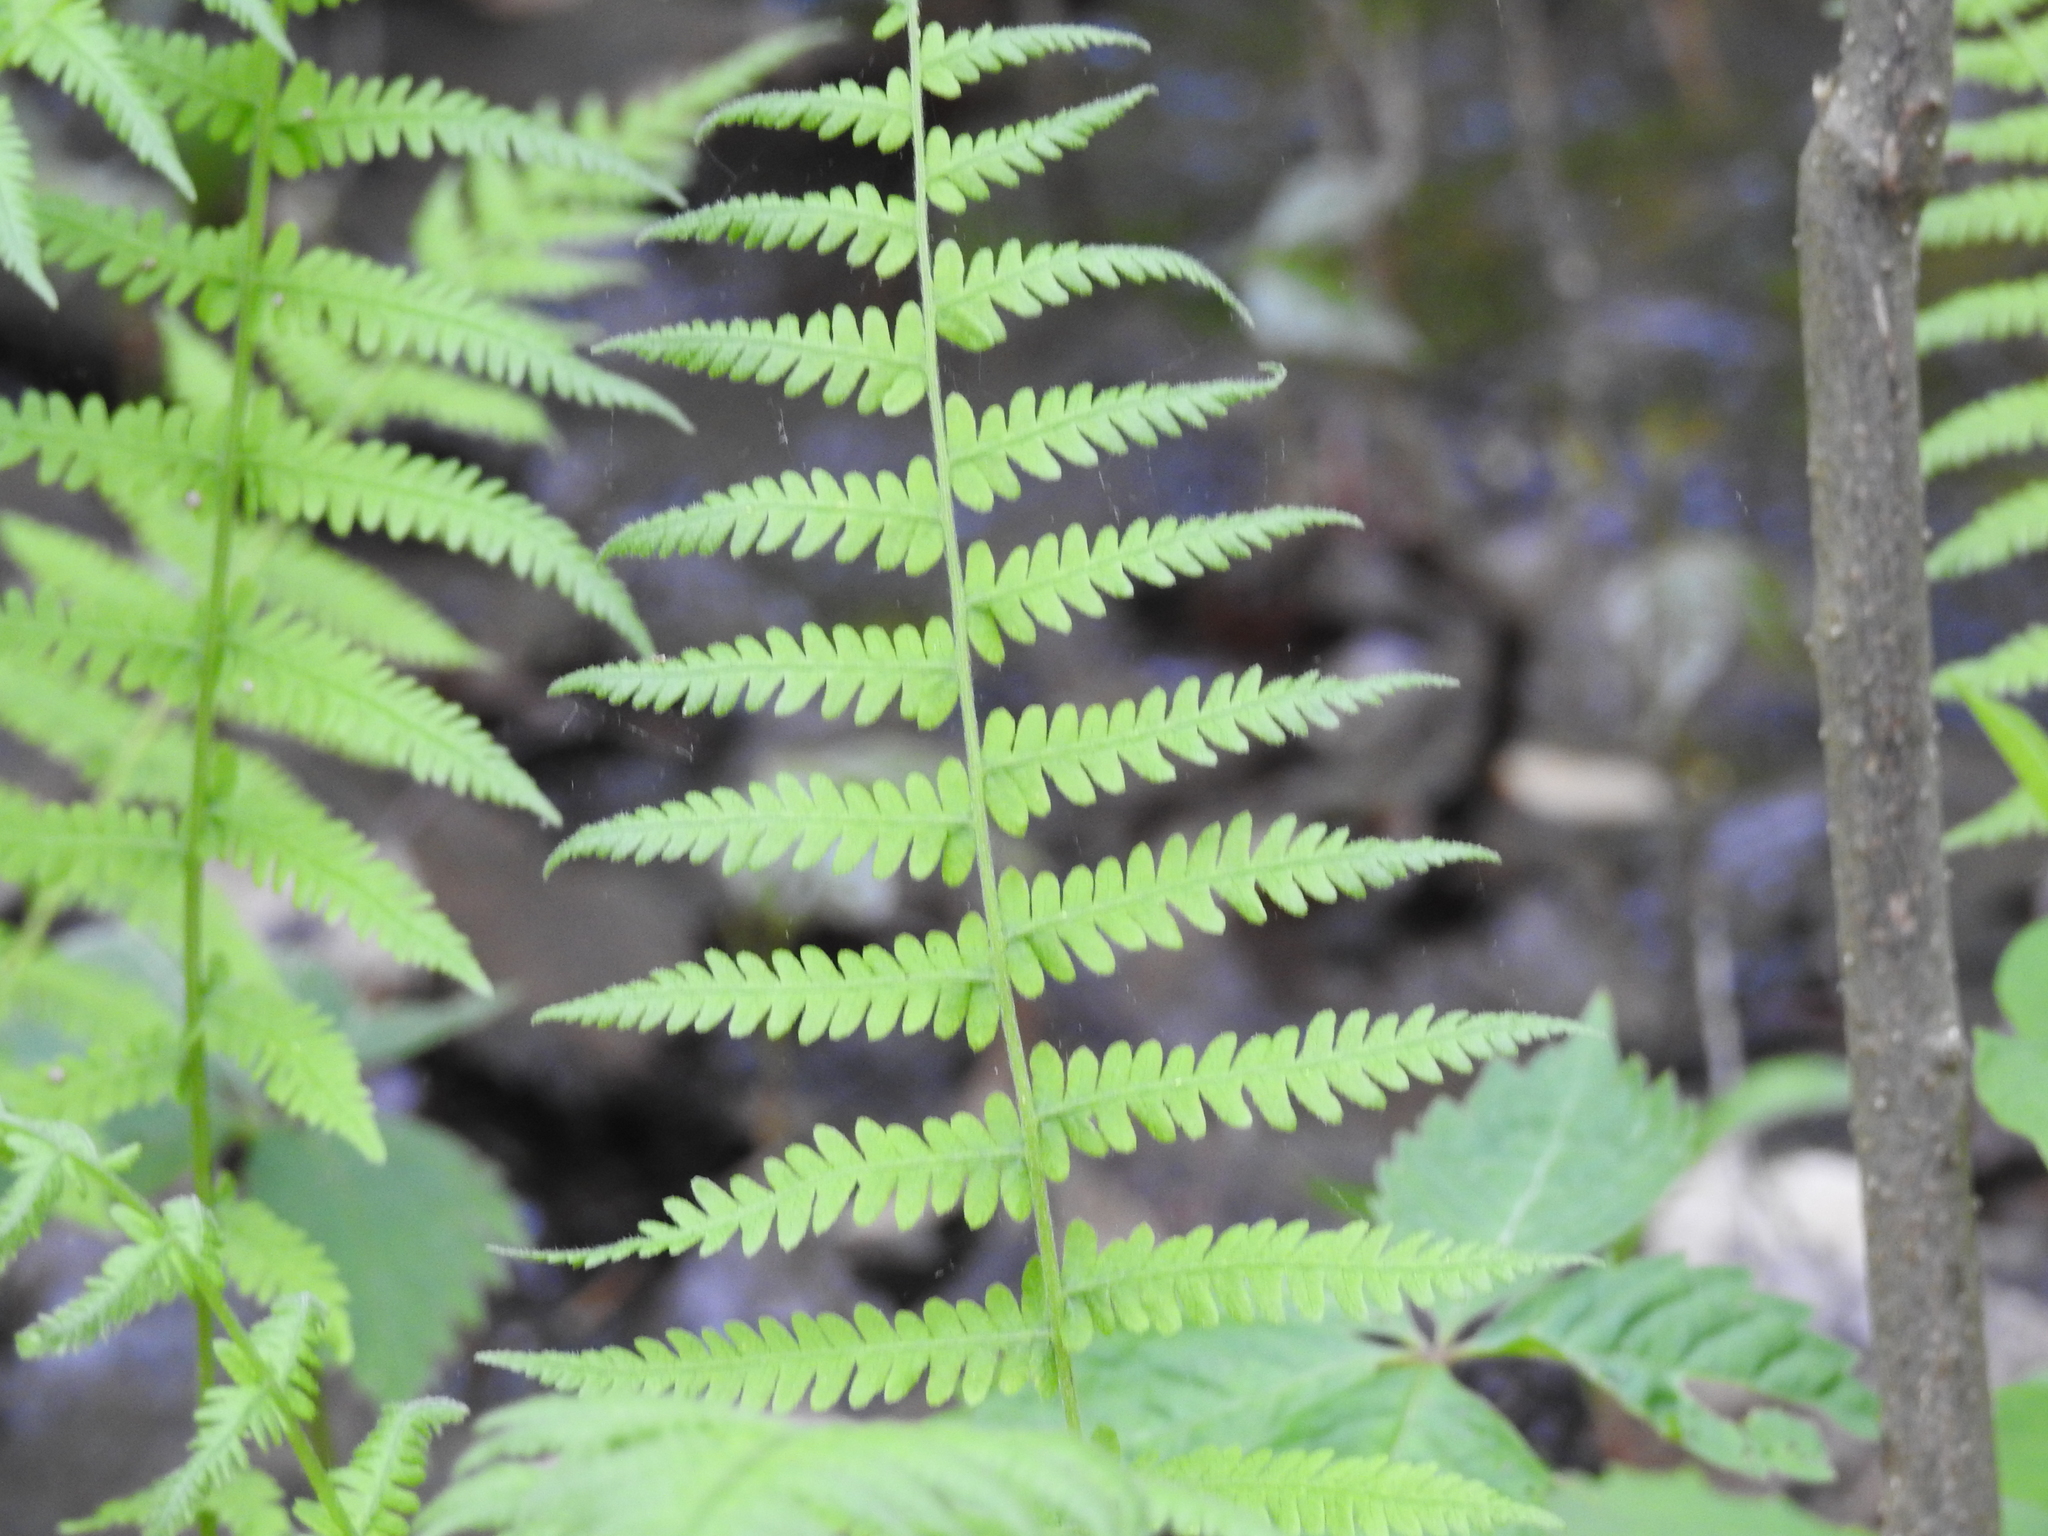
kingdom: Plantae
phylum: Tracheophyta
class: Polypodiopsida
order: Polypodiales
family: Thelypteridaceae
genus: Amauropelta
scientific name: Amauropelta noveboracensis
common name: New york fern
